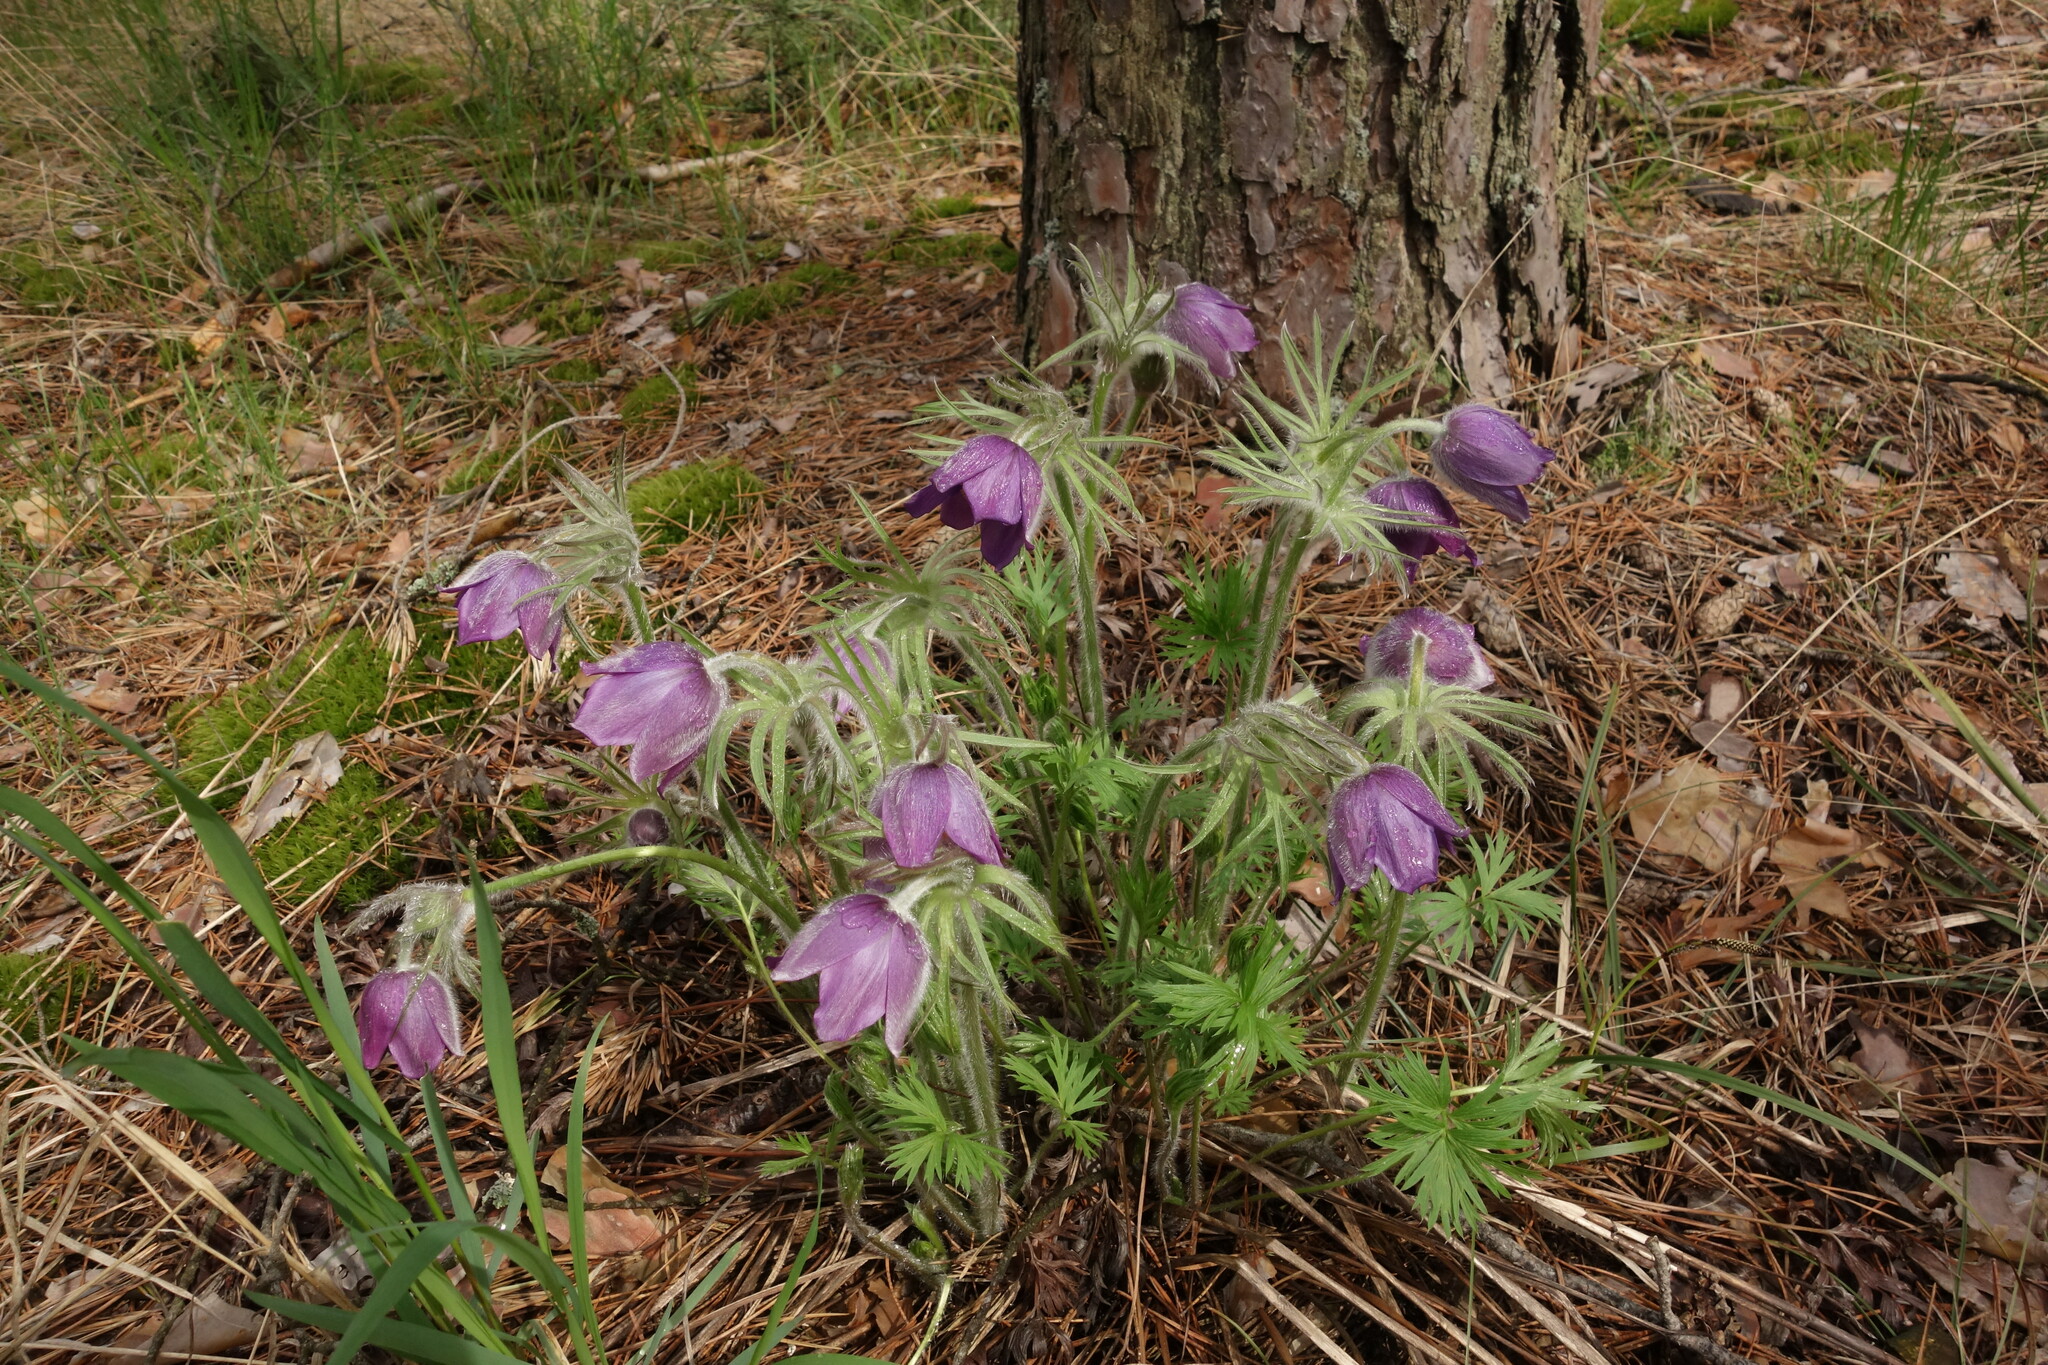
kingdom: Plantae
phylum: Tracheophyta
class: Magnoliopsida
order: Ranunculales
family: Ranunculaceae
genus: Pulsatilla
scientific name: Pulsatilla wolfgangiana
